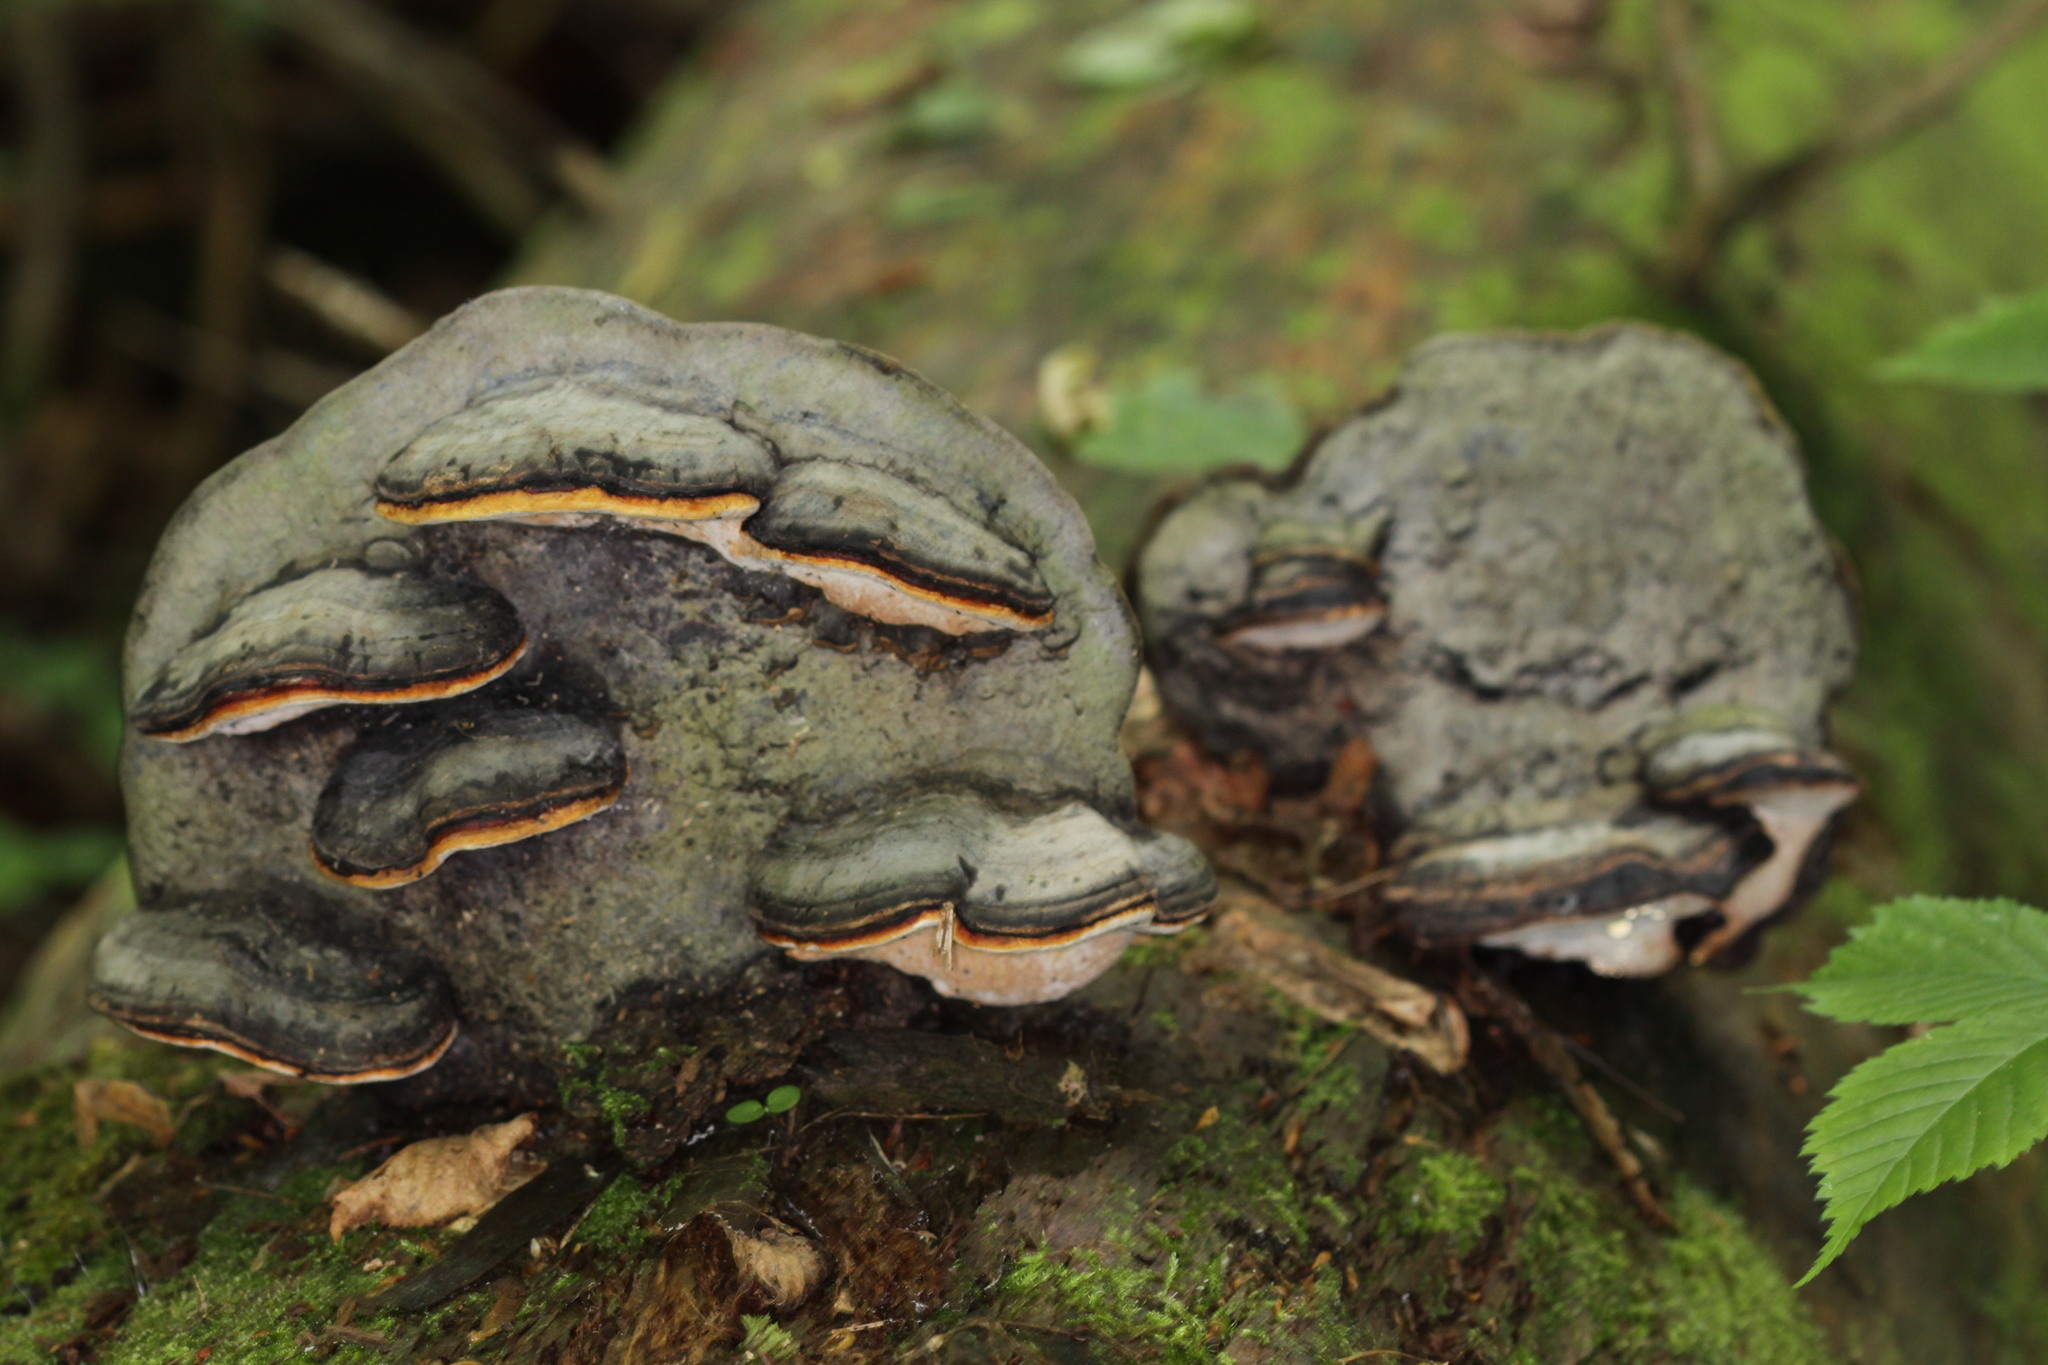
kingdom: Fungi
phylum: Basidiomycota
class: Agaricomycetes
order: Polyporales
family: Fomitopsidaceae
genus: Fomitopsis
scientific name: Fomitopsis pinicola
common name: Red-belted bracket
